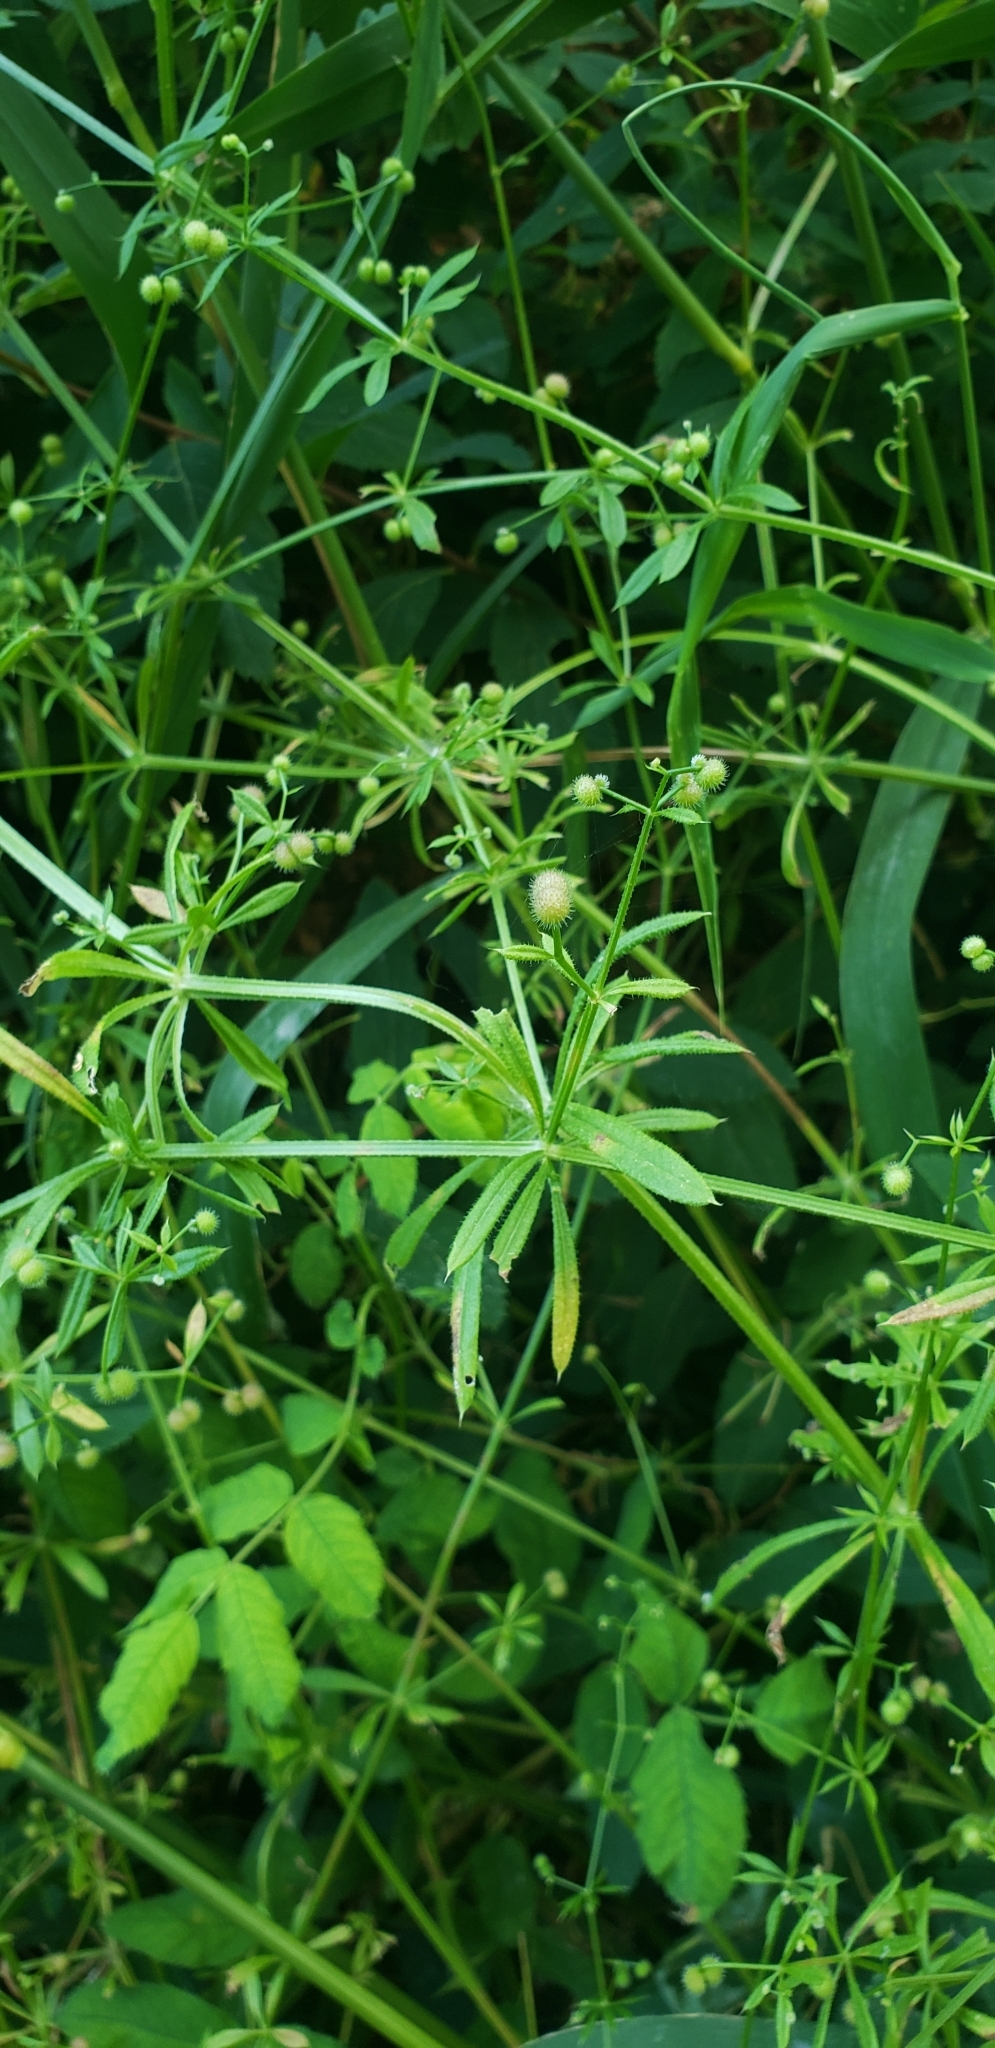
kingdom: Plantae
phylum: Tracheophyta
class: Magnoliopsida
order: Gentianales
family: Rubiaceae
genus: Galium
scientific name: Galium aparine
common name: Cleavers
